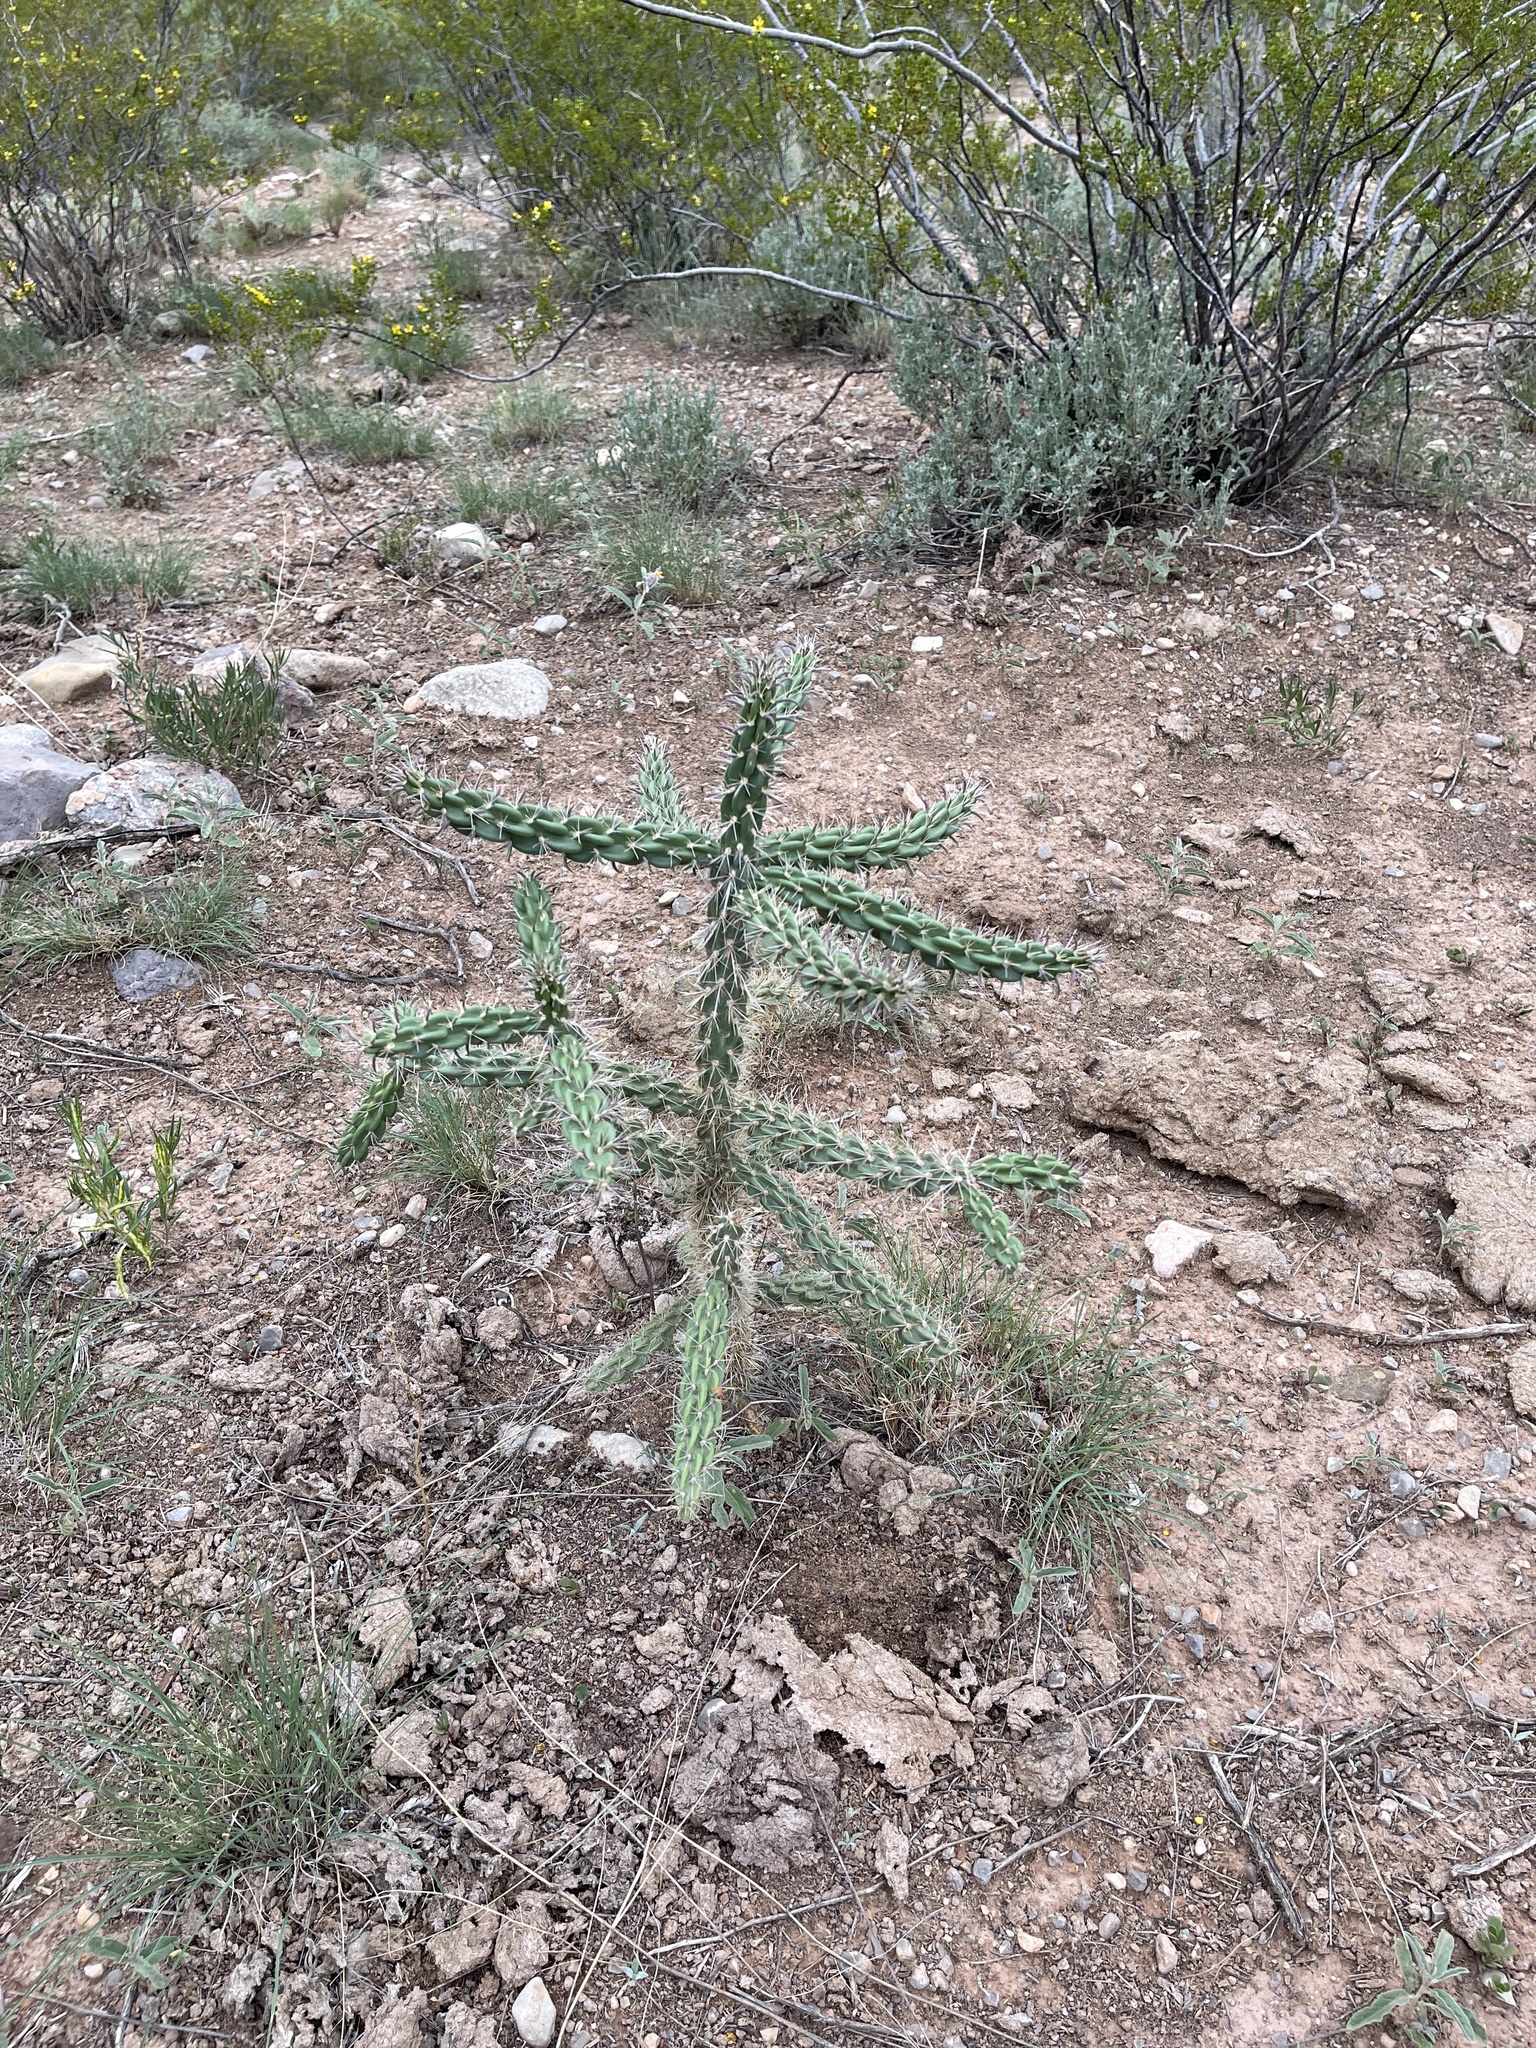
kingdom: Plantae
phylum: Tracheophyta
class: Magnoliopsida
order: Caryophyllales
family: Cactaceae
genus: Cylindropuntia
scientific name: Cylindropuntia imbricata
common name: Candelabrum cactus
